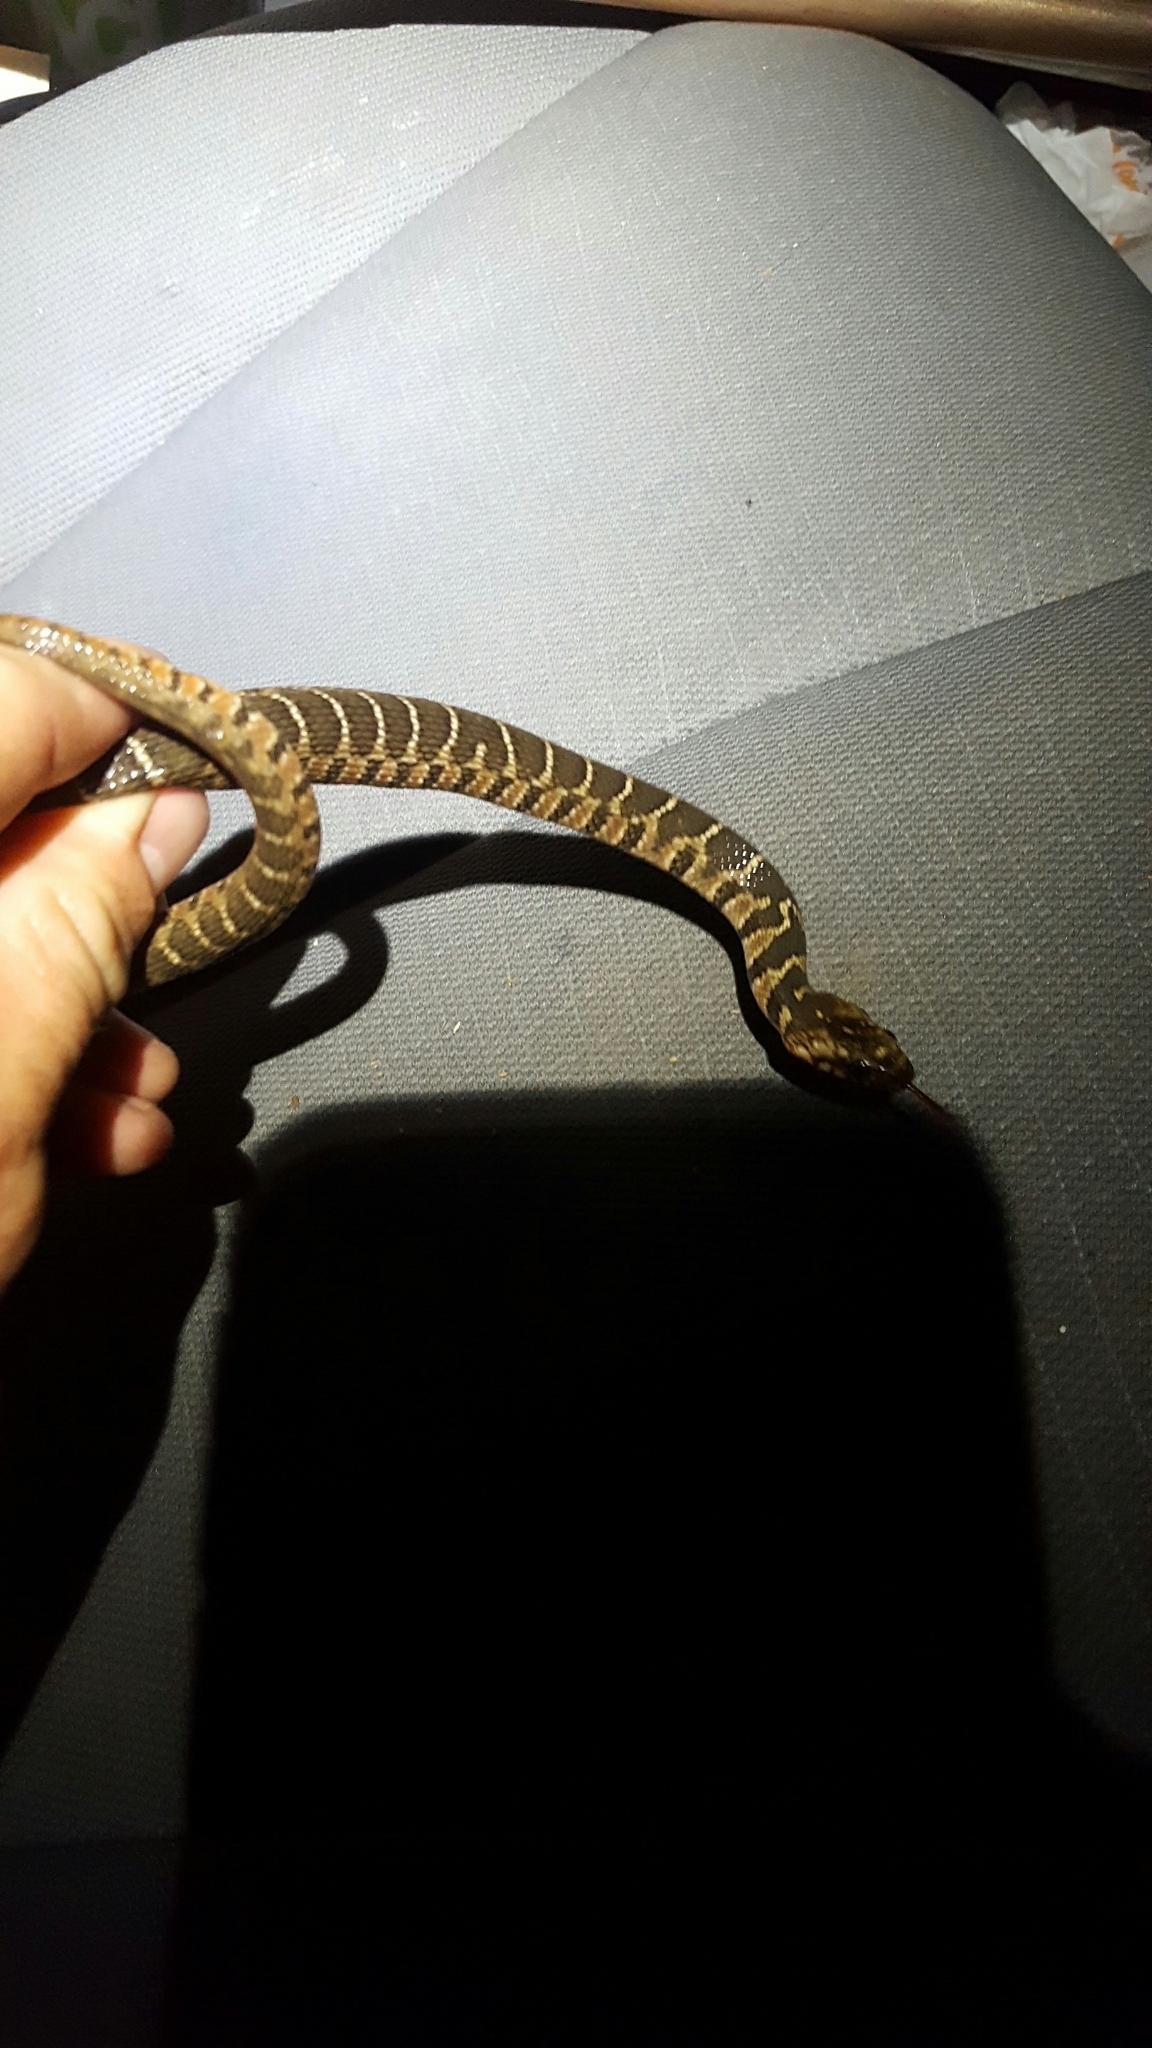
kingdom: Animalia
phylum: Chordata
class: Squamata
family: Colubridae
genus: Nerodia
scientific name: Nerodia erythrogaster
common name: Plainbelly water snake
